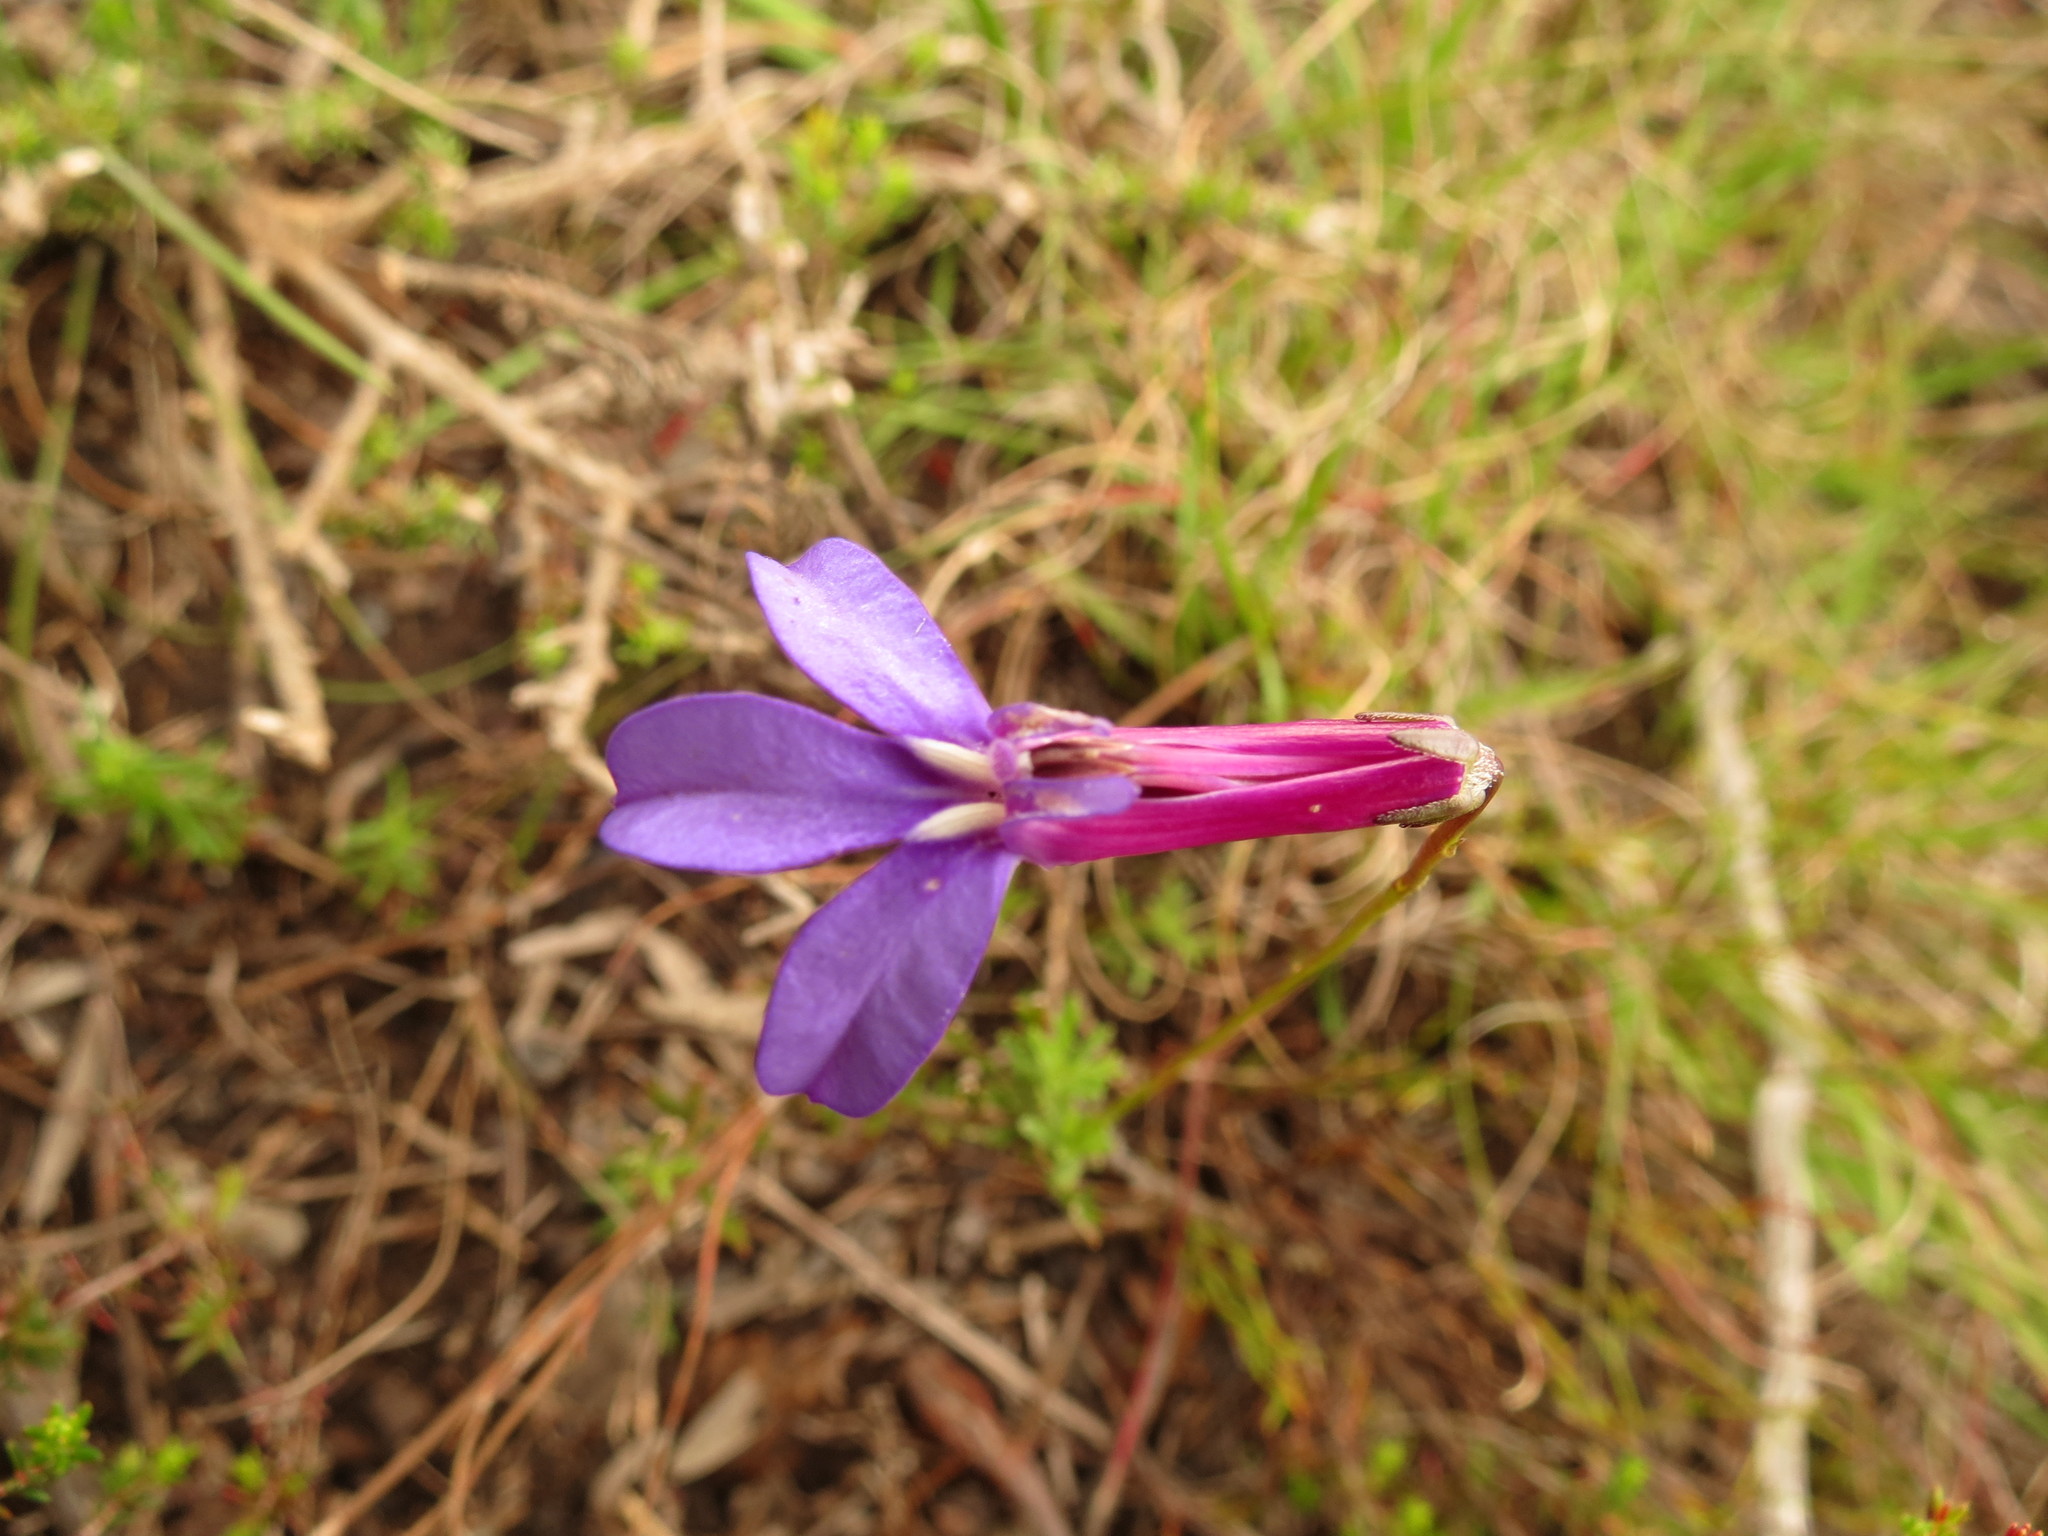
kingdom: Plantae
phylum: Tracheophyta
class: Magnoliopsida
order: Asterales
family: Campanulaceae
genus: Lobelia
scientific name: Lobelia tomentosa
